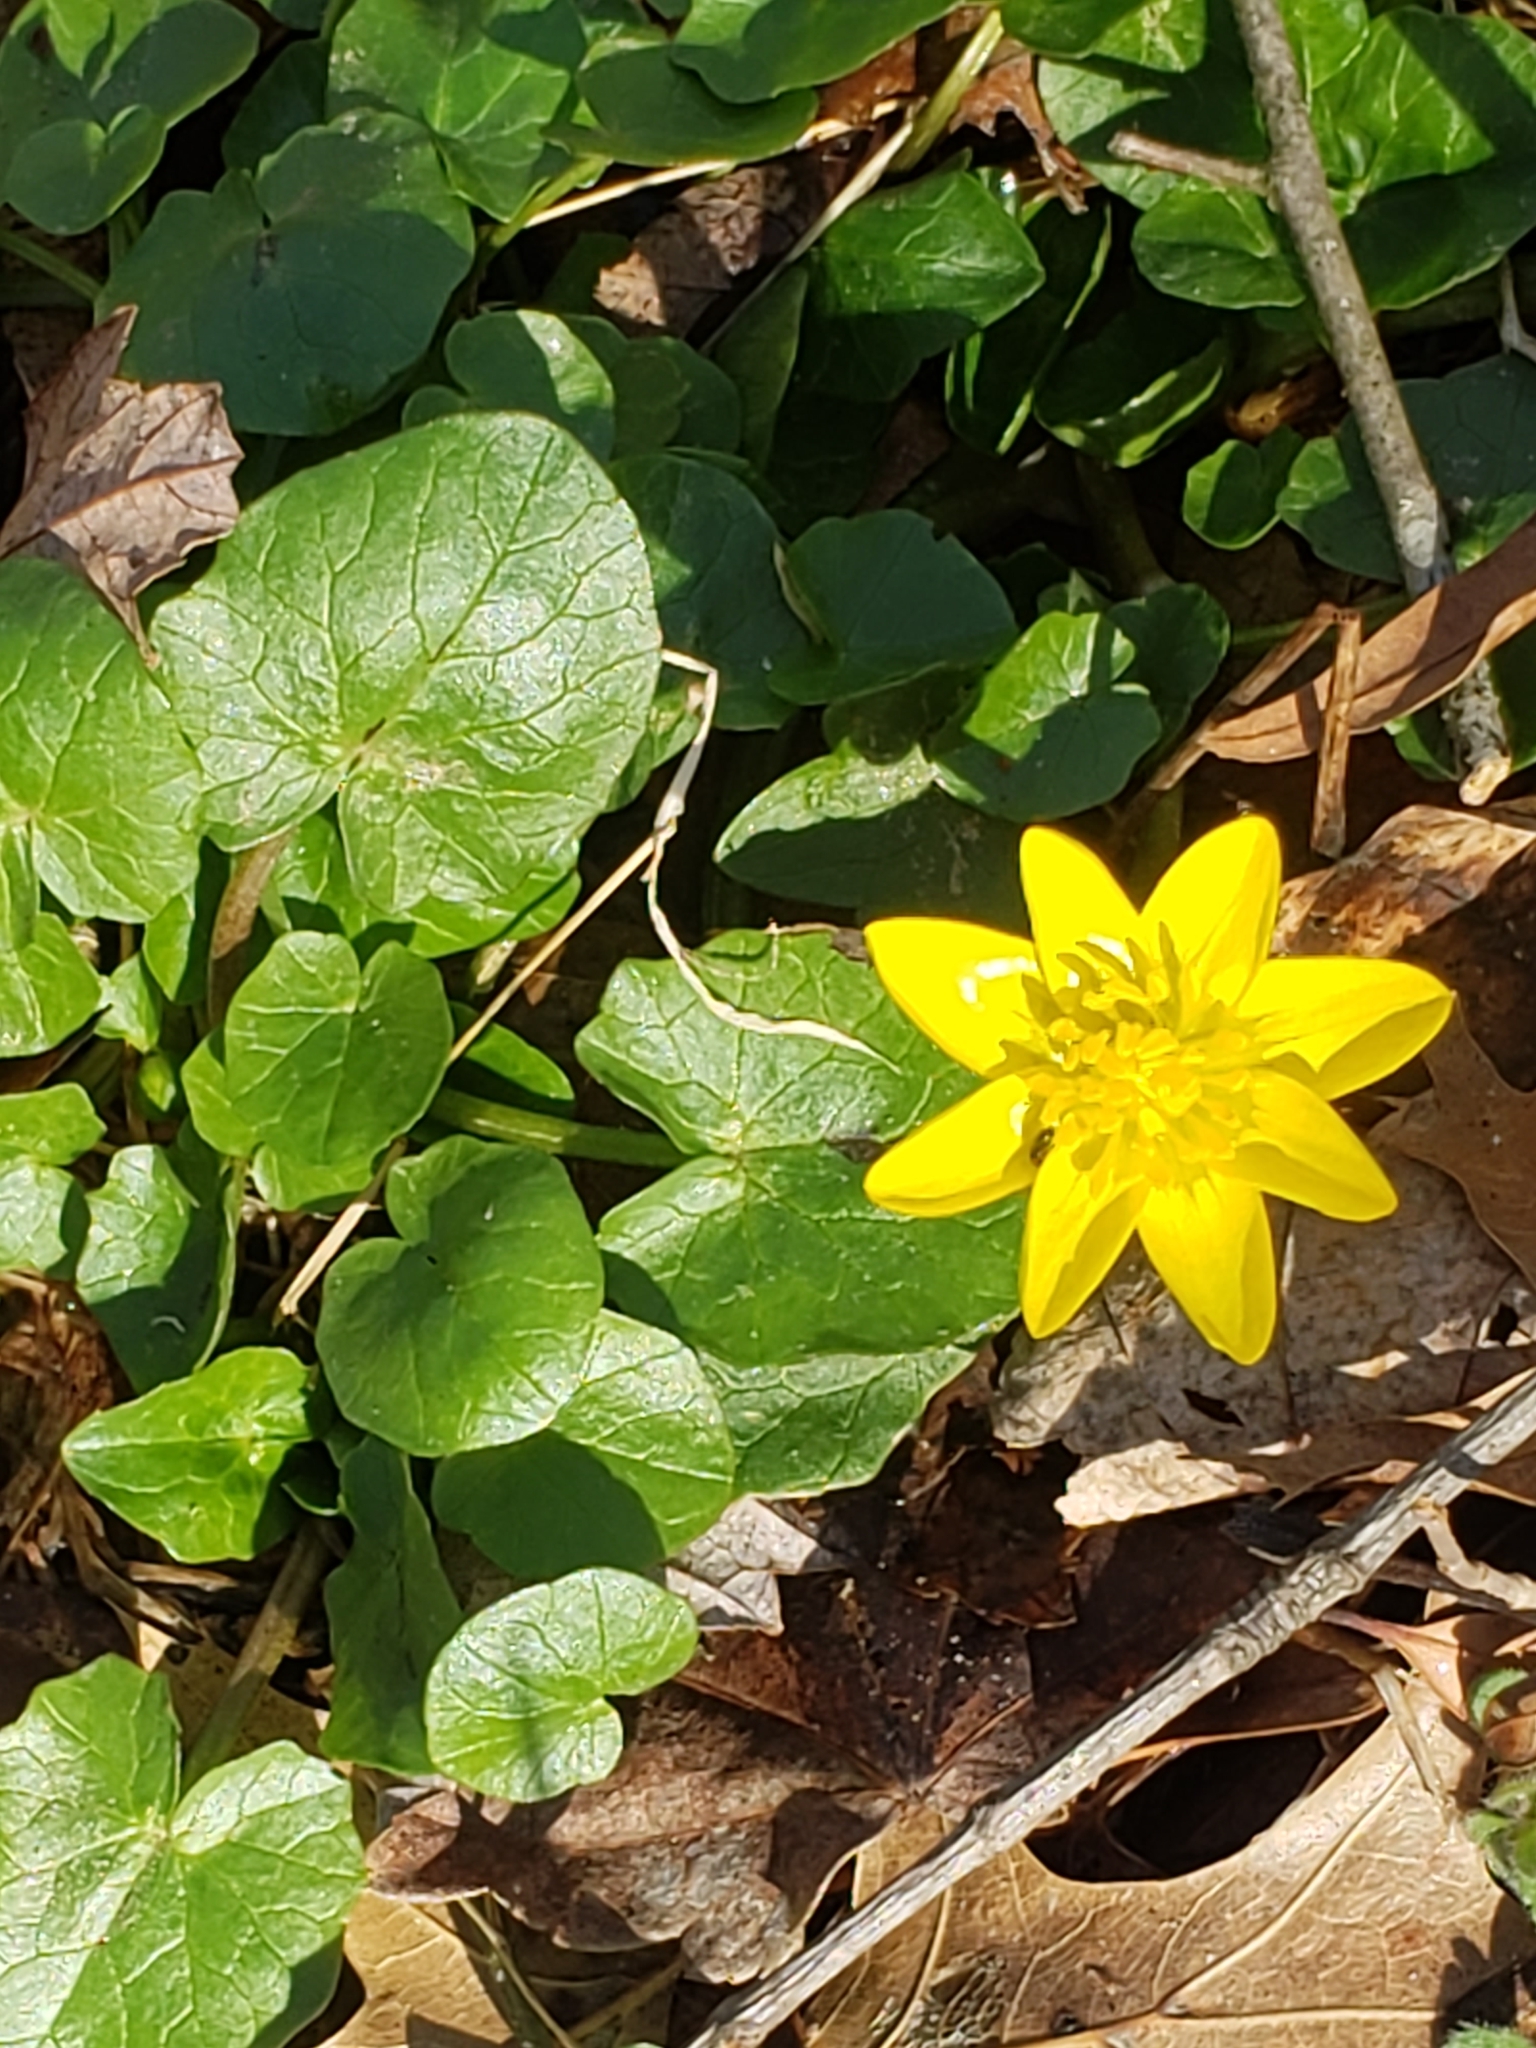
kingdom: Plantae
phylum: Tracheophyta
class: Magnoliopsida
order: Ranunculales
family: Ranunculaceae
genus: Ficaria
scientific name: Ficaria verna
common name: Lesser celandine
